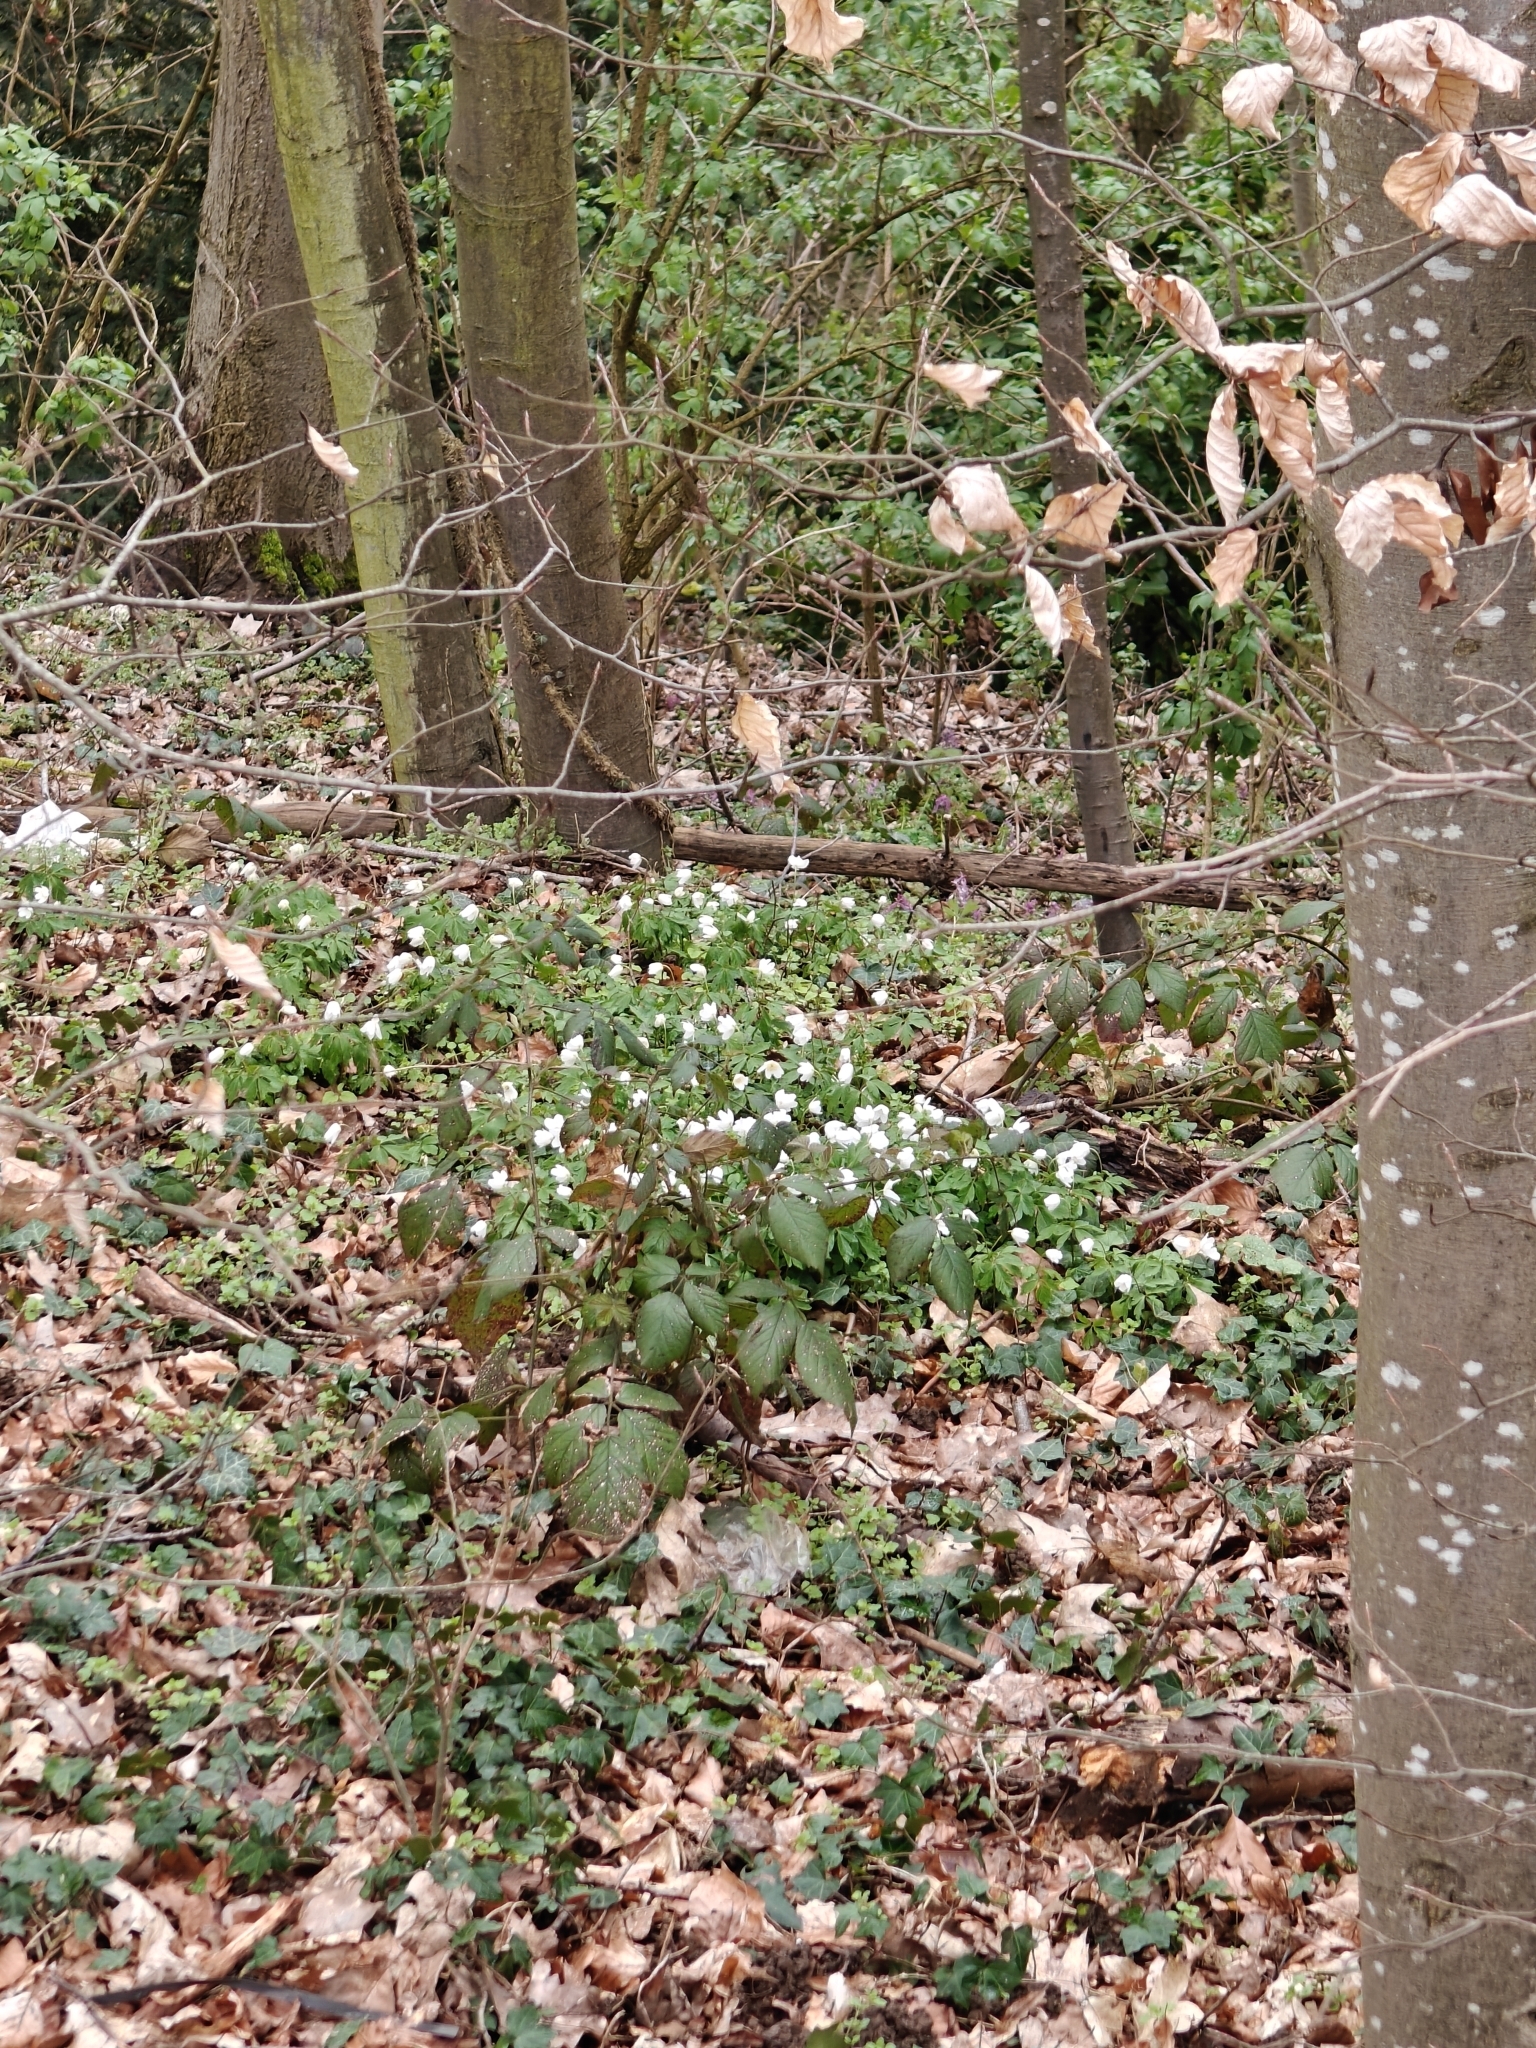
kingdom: Plantae
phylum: Tracheophyta
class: Magnoliopsida
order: Ranunculales
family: Ranunculaceae
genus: Anemone
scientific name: Anemone nemorosa
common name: Wood anemone
